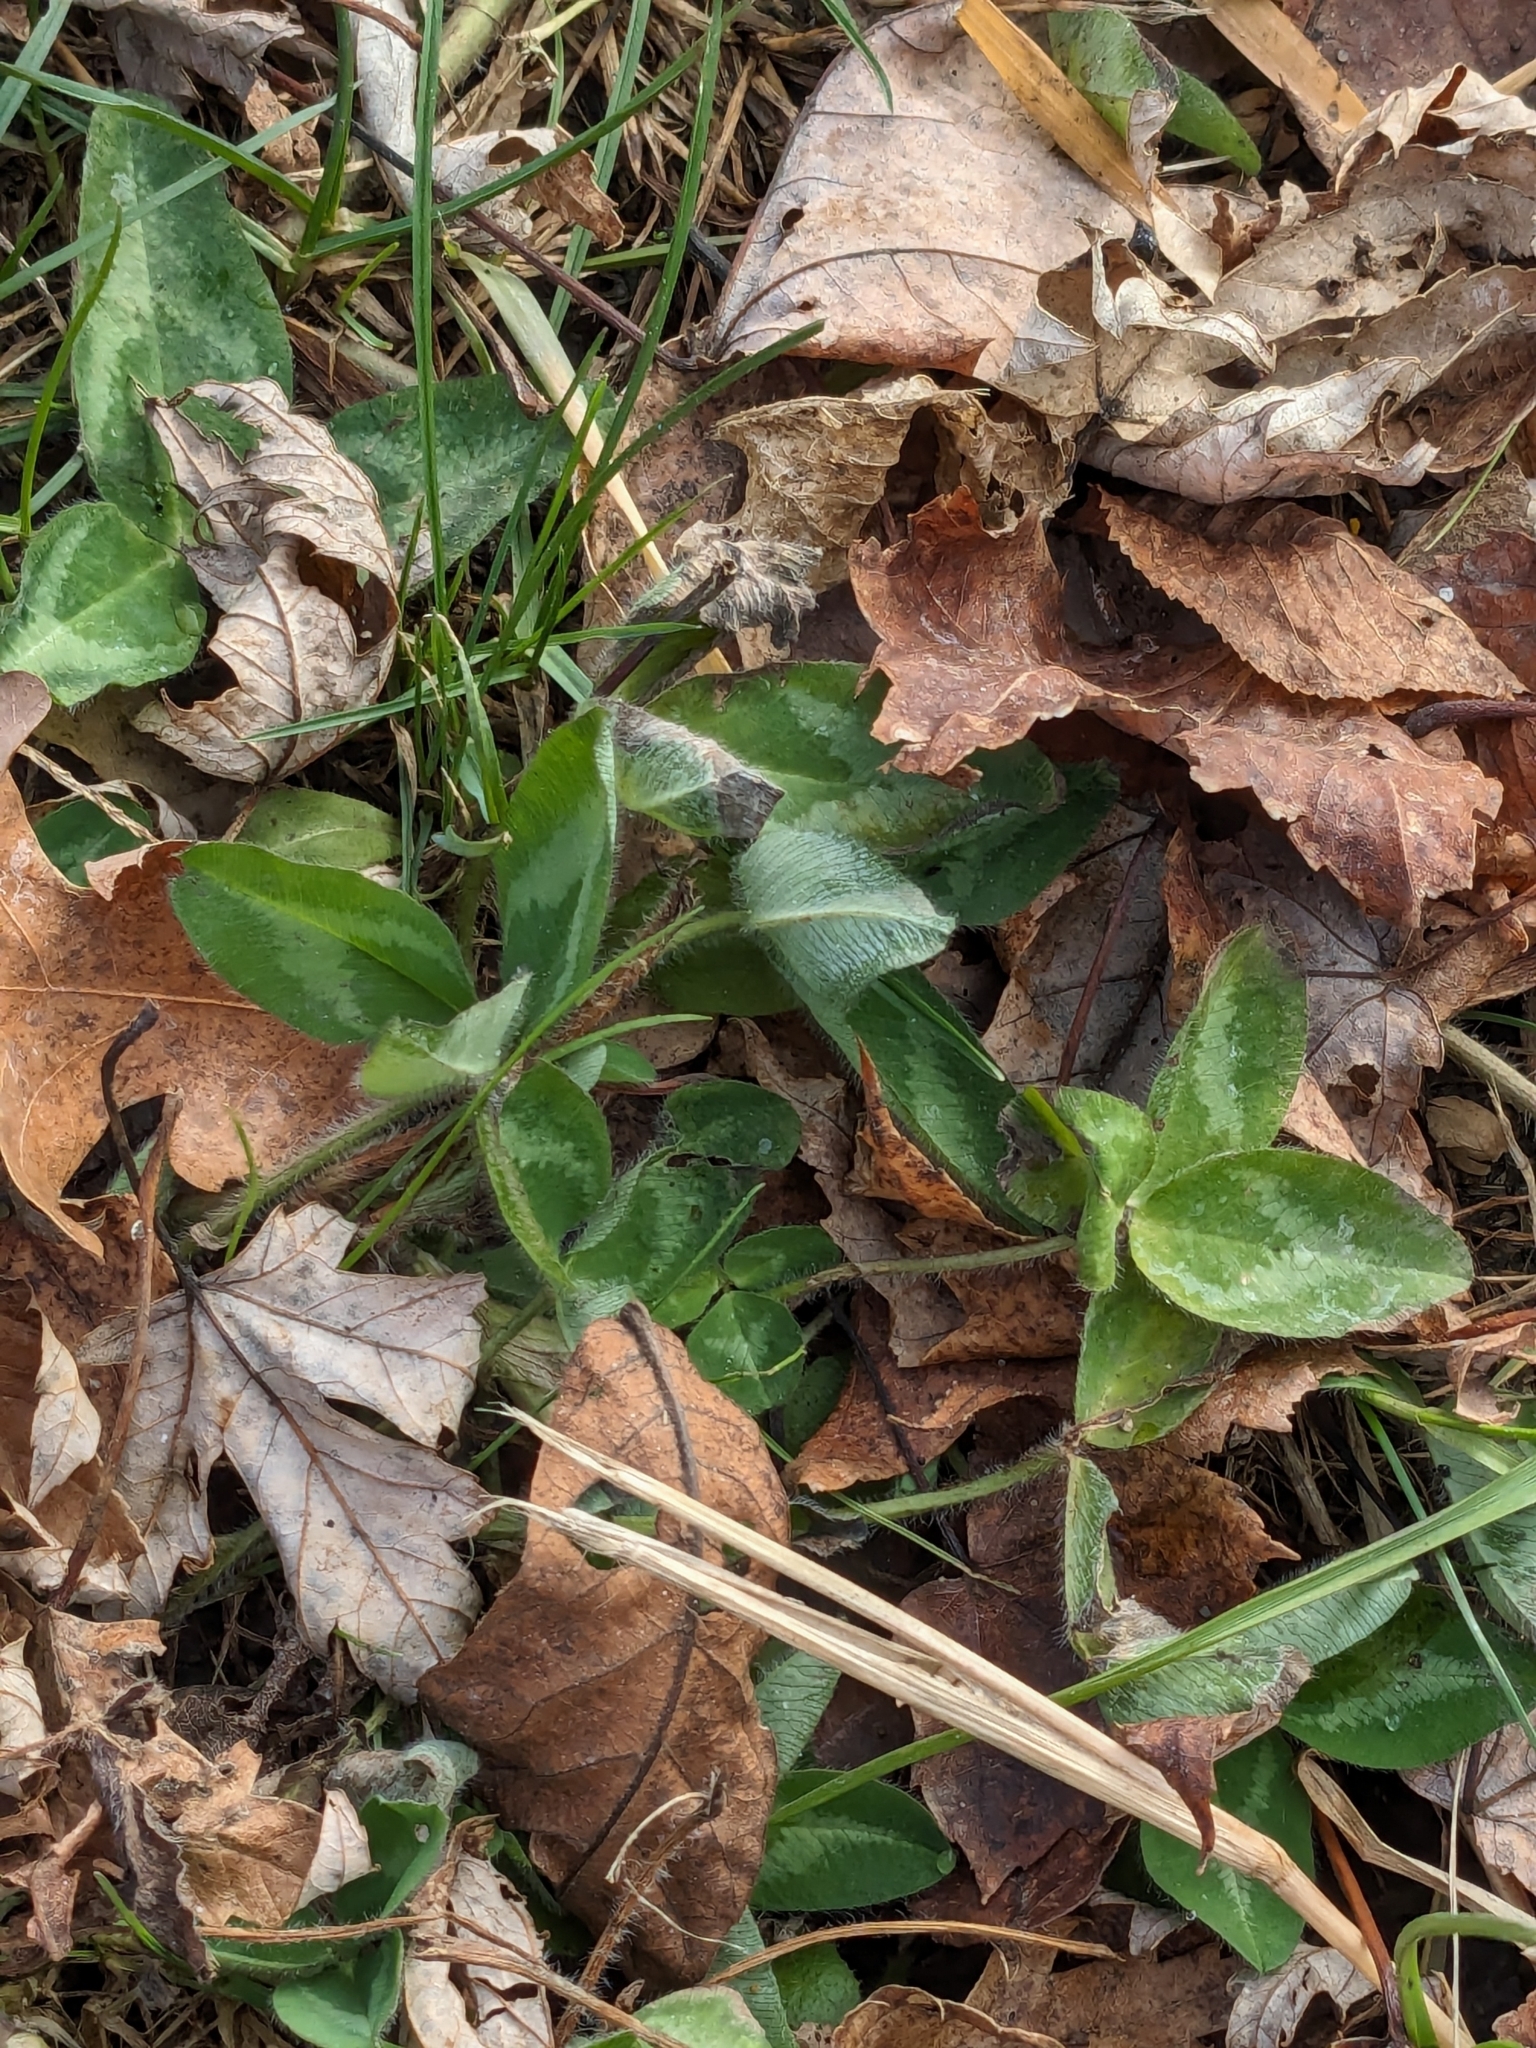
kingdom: Plantae
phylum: Tracheophyta
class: Magnoliopsida
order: Fabales
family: Fabaceae
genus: Trifolium
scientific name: Trifolium pratense
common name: Red clover
